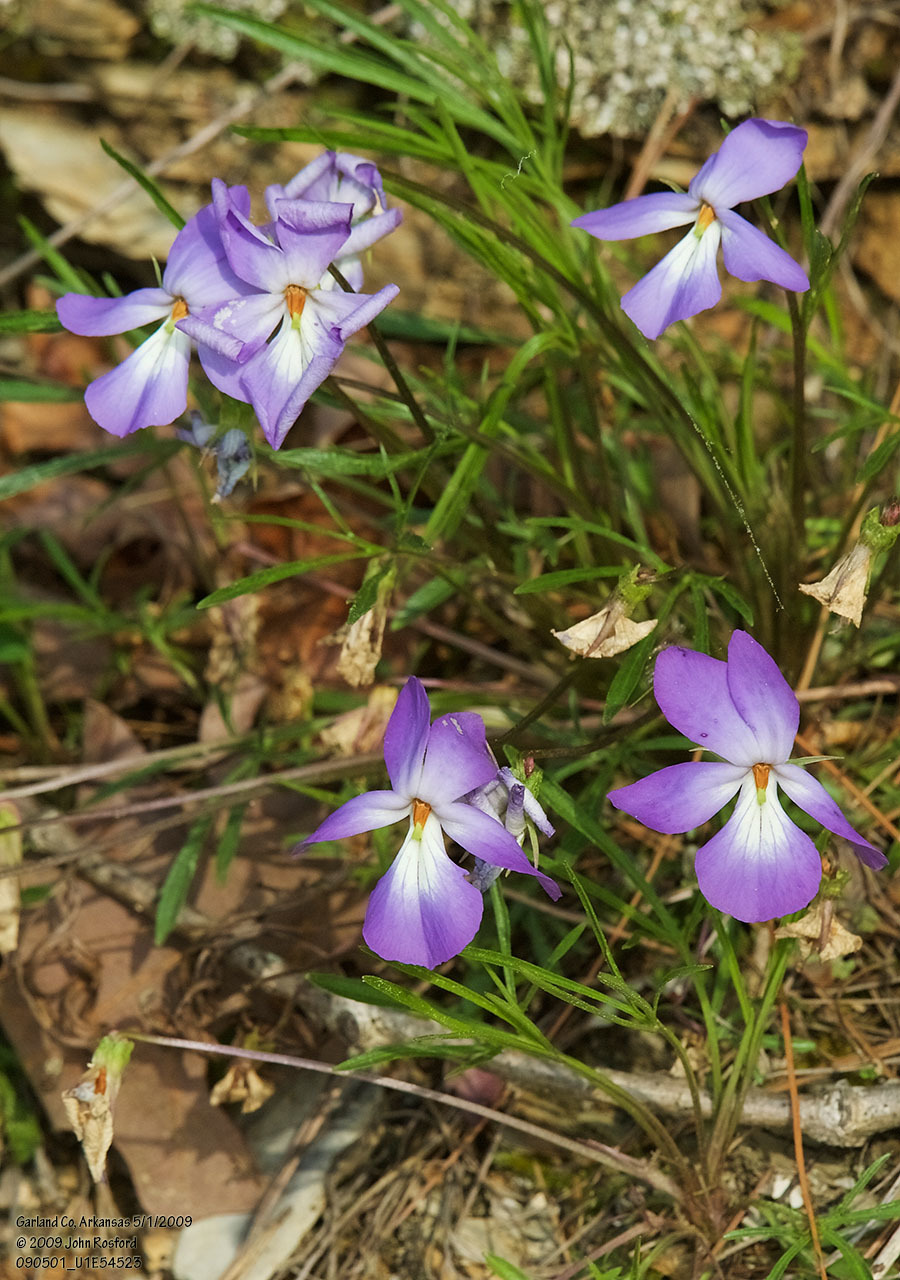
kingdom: Plantae
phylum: Tracheophyta
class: Magnoliopsida
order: Malpighiales
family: Violaceae
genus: Viola
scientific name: Viola pedata
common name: Pansy violet
